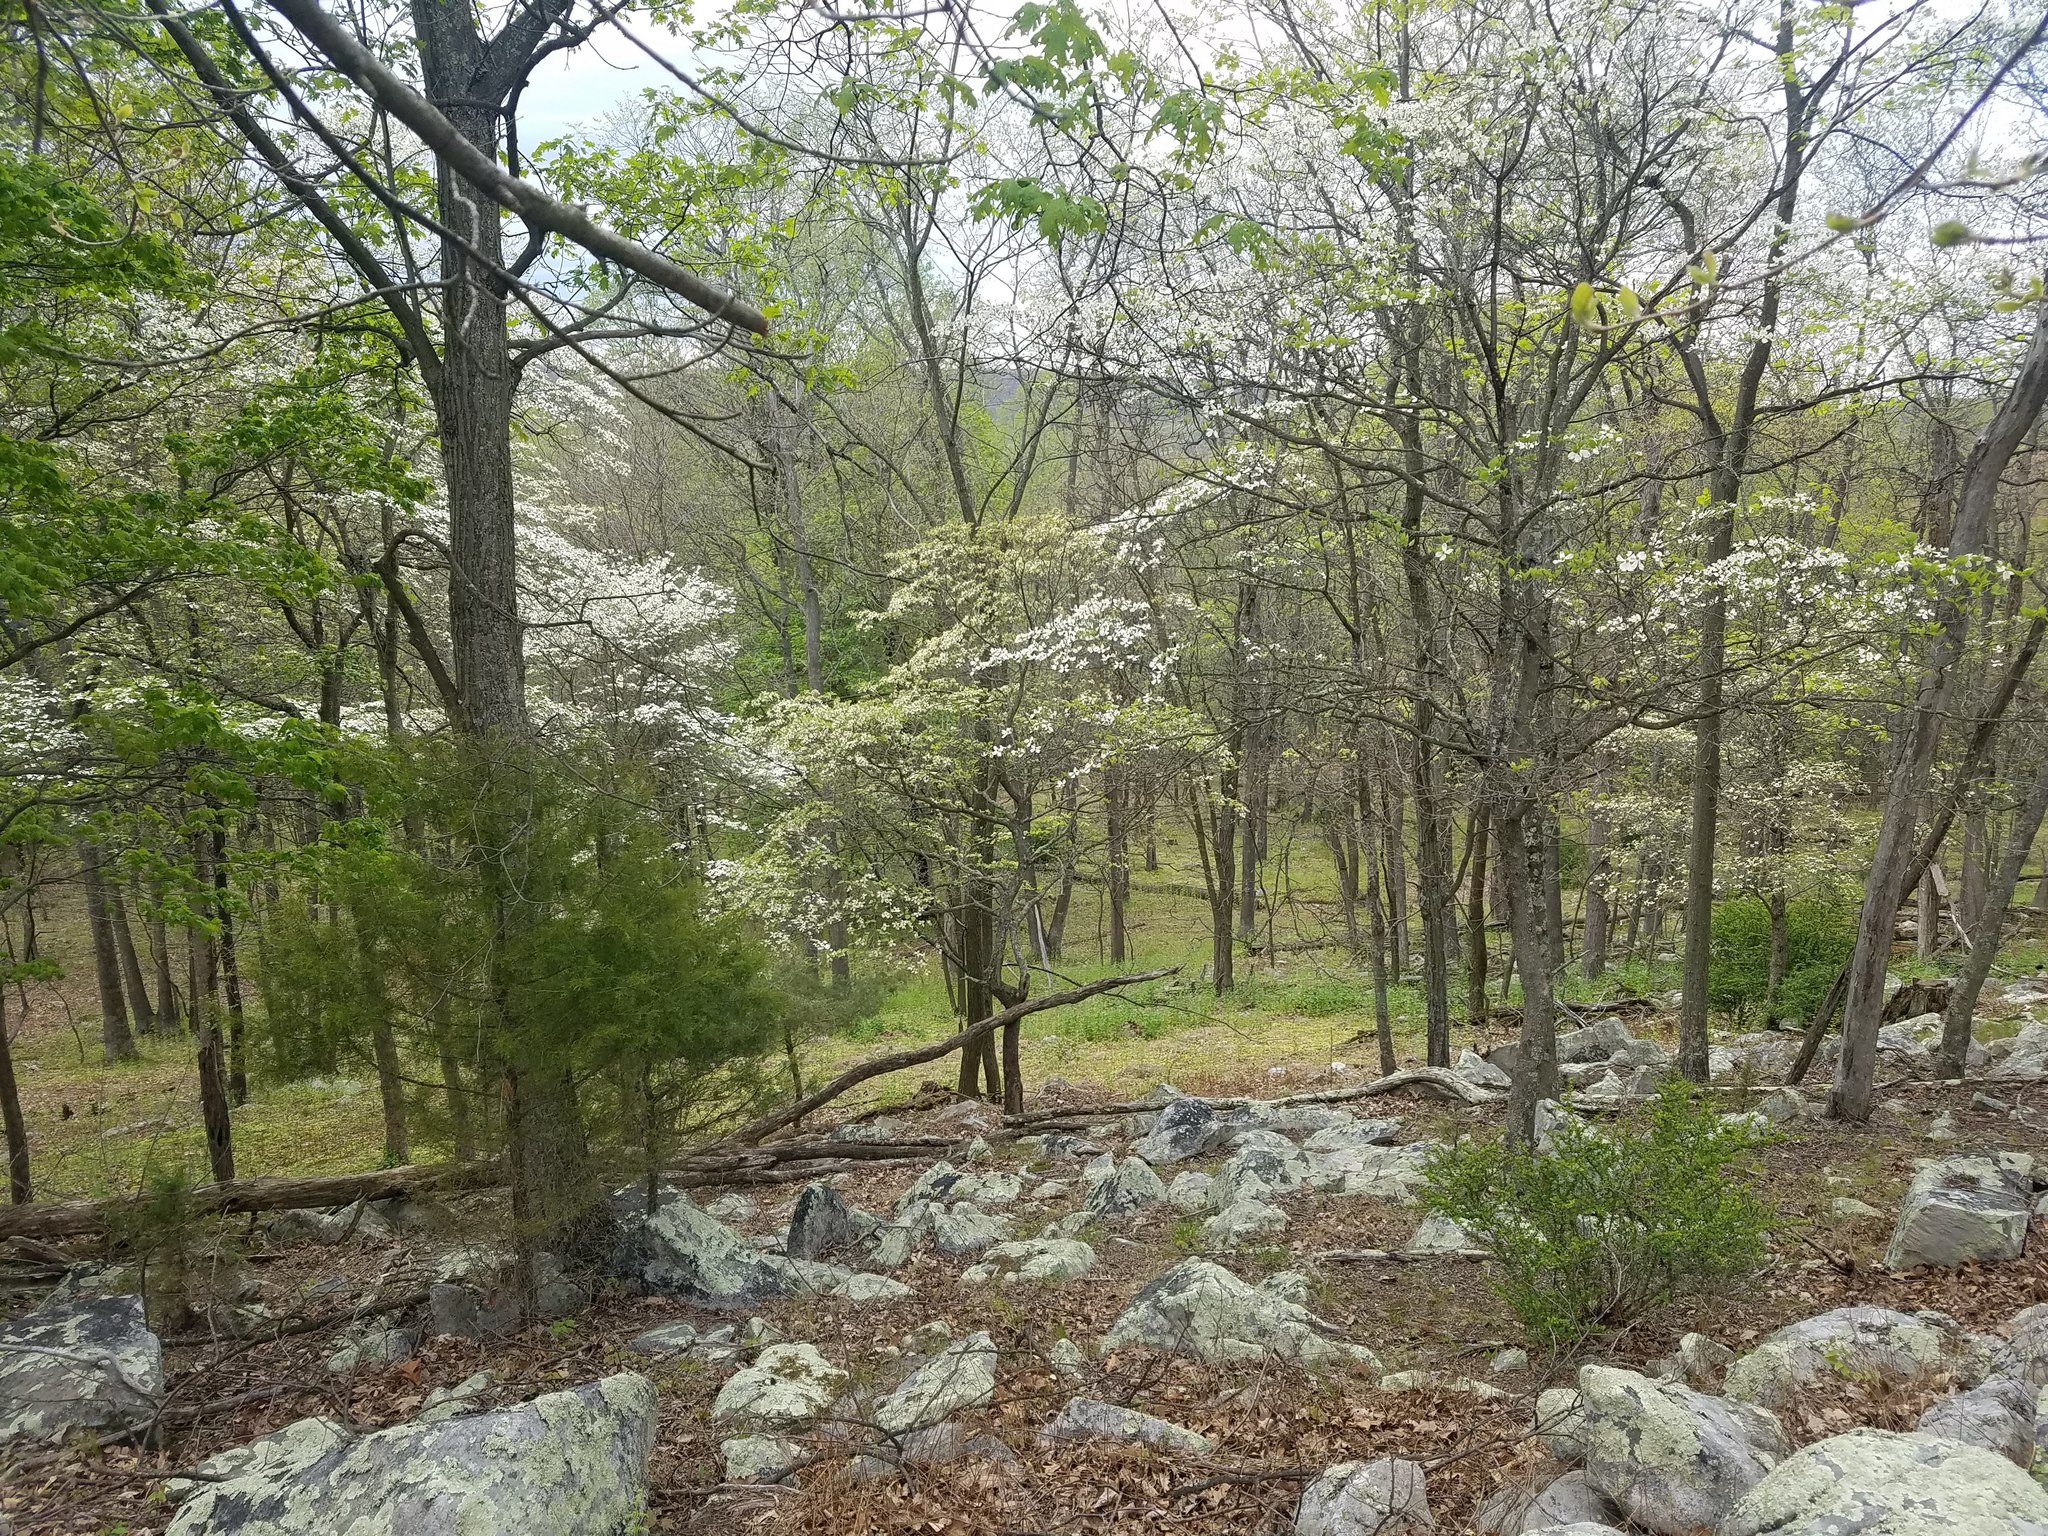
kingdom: Plantae
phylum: Tracheophyta
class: Magnoliopsida
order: Cornales
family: Cornaceae
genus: Cornus
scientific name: Cornus florida
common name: Flowering dogwood
